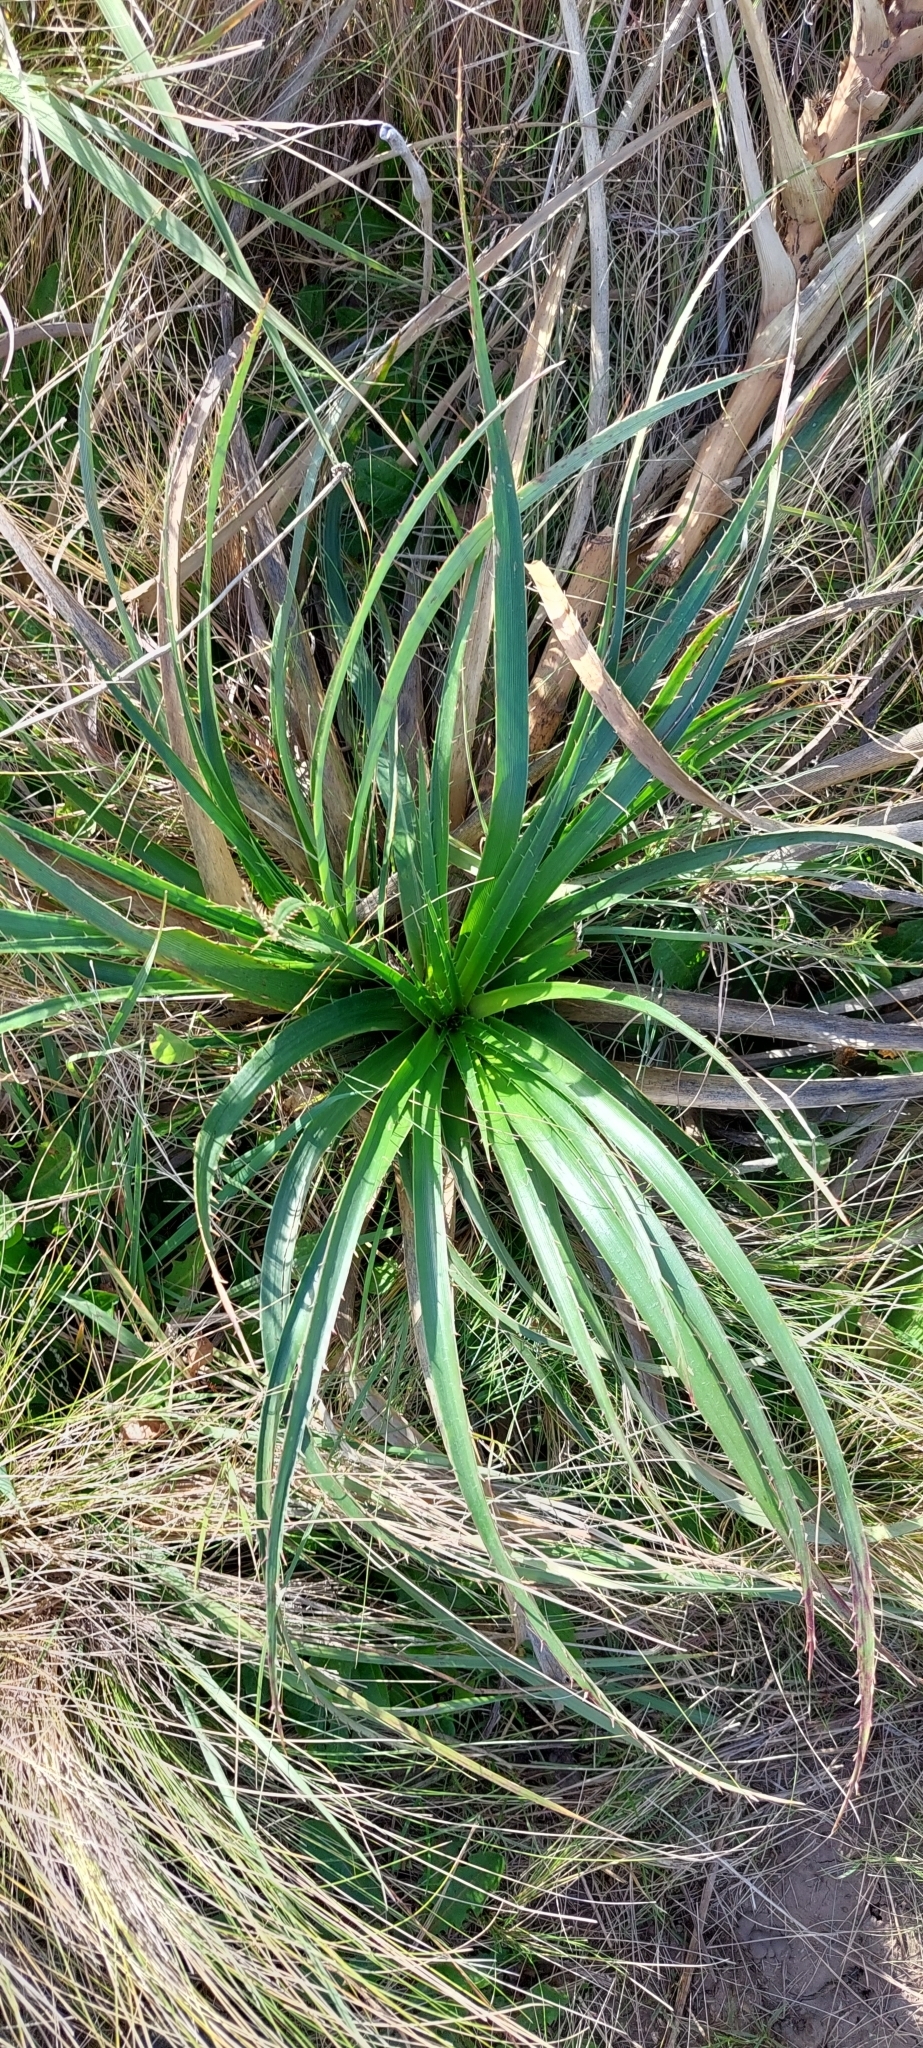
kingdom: Plantae
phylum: Tracheophyta
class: Magnoliopsida
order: Apiales
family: Apiaceae
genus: Eryngium
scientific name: Eryngium humboldtii
